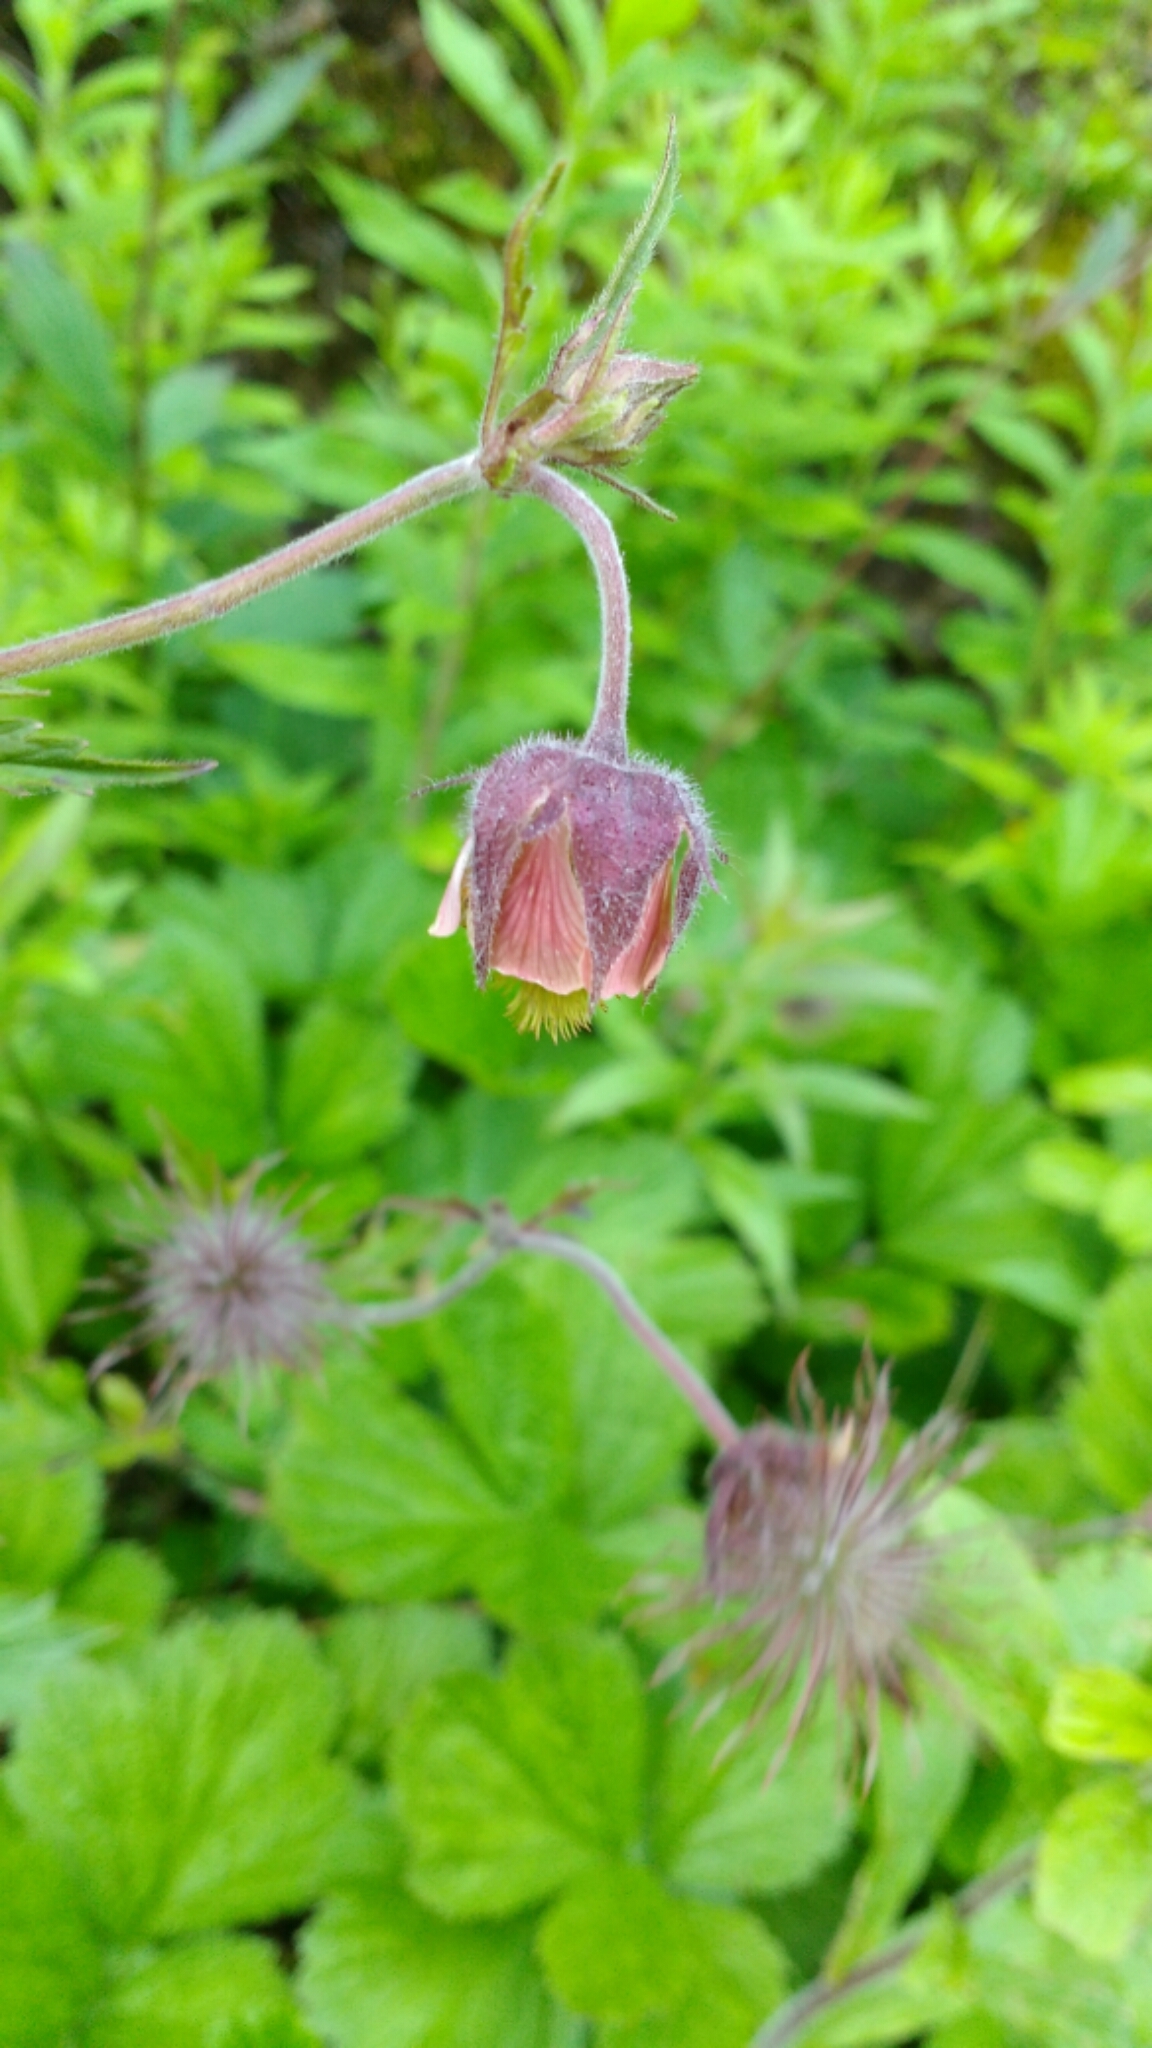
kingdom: Plantae
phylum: Tracheophyta
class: Magnoliopsida
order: Rosales
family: Rosaceae
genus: Geum
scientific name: Geum rivale
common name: Water avens
